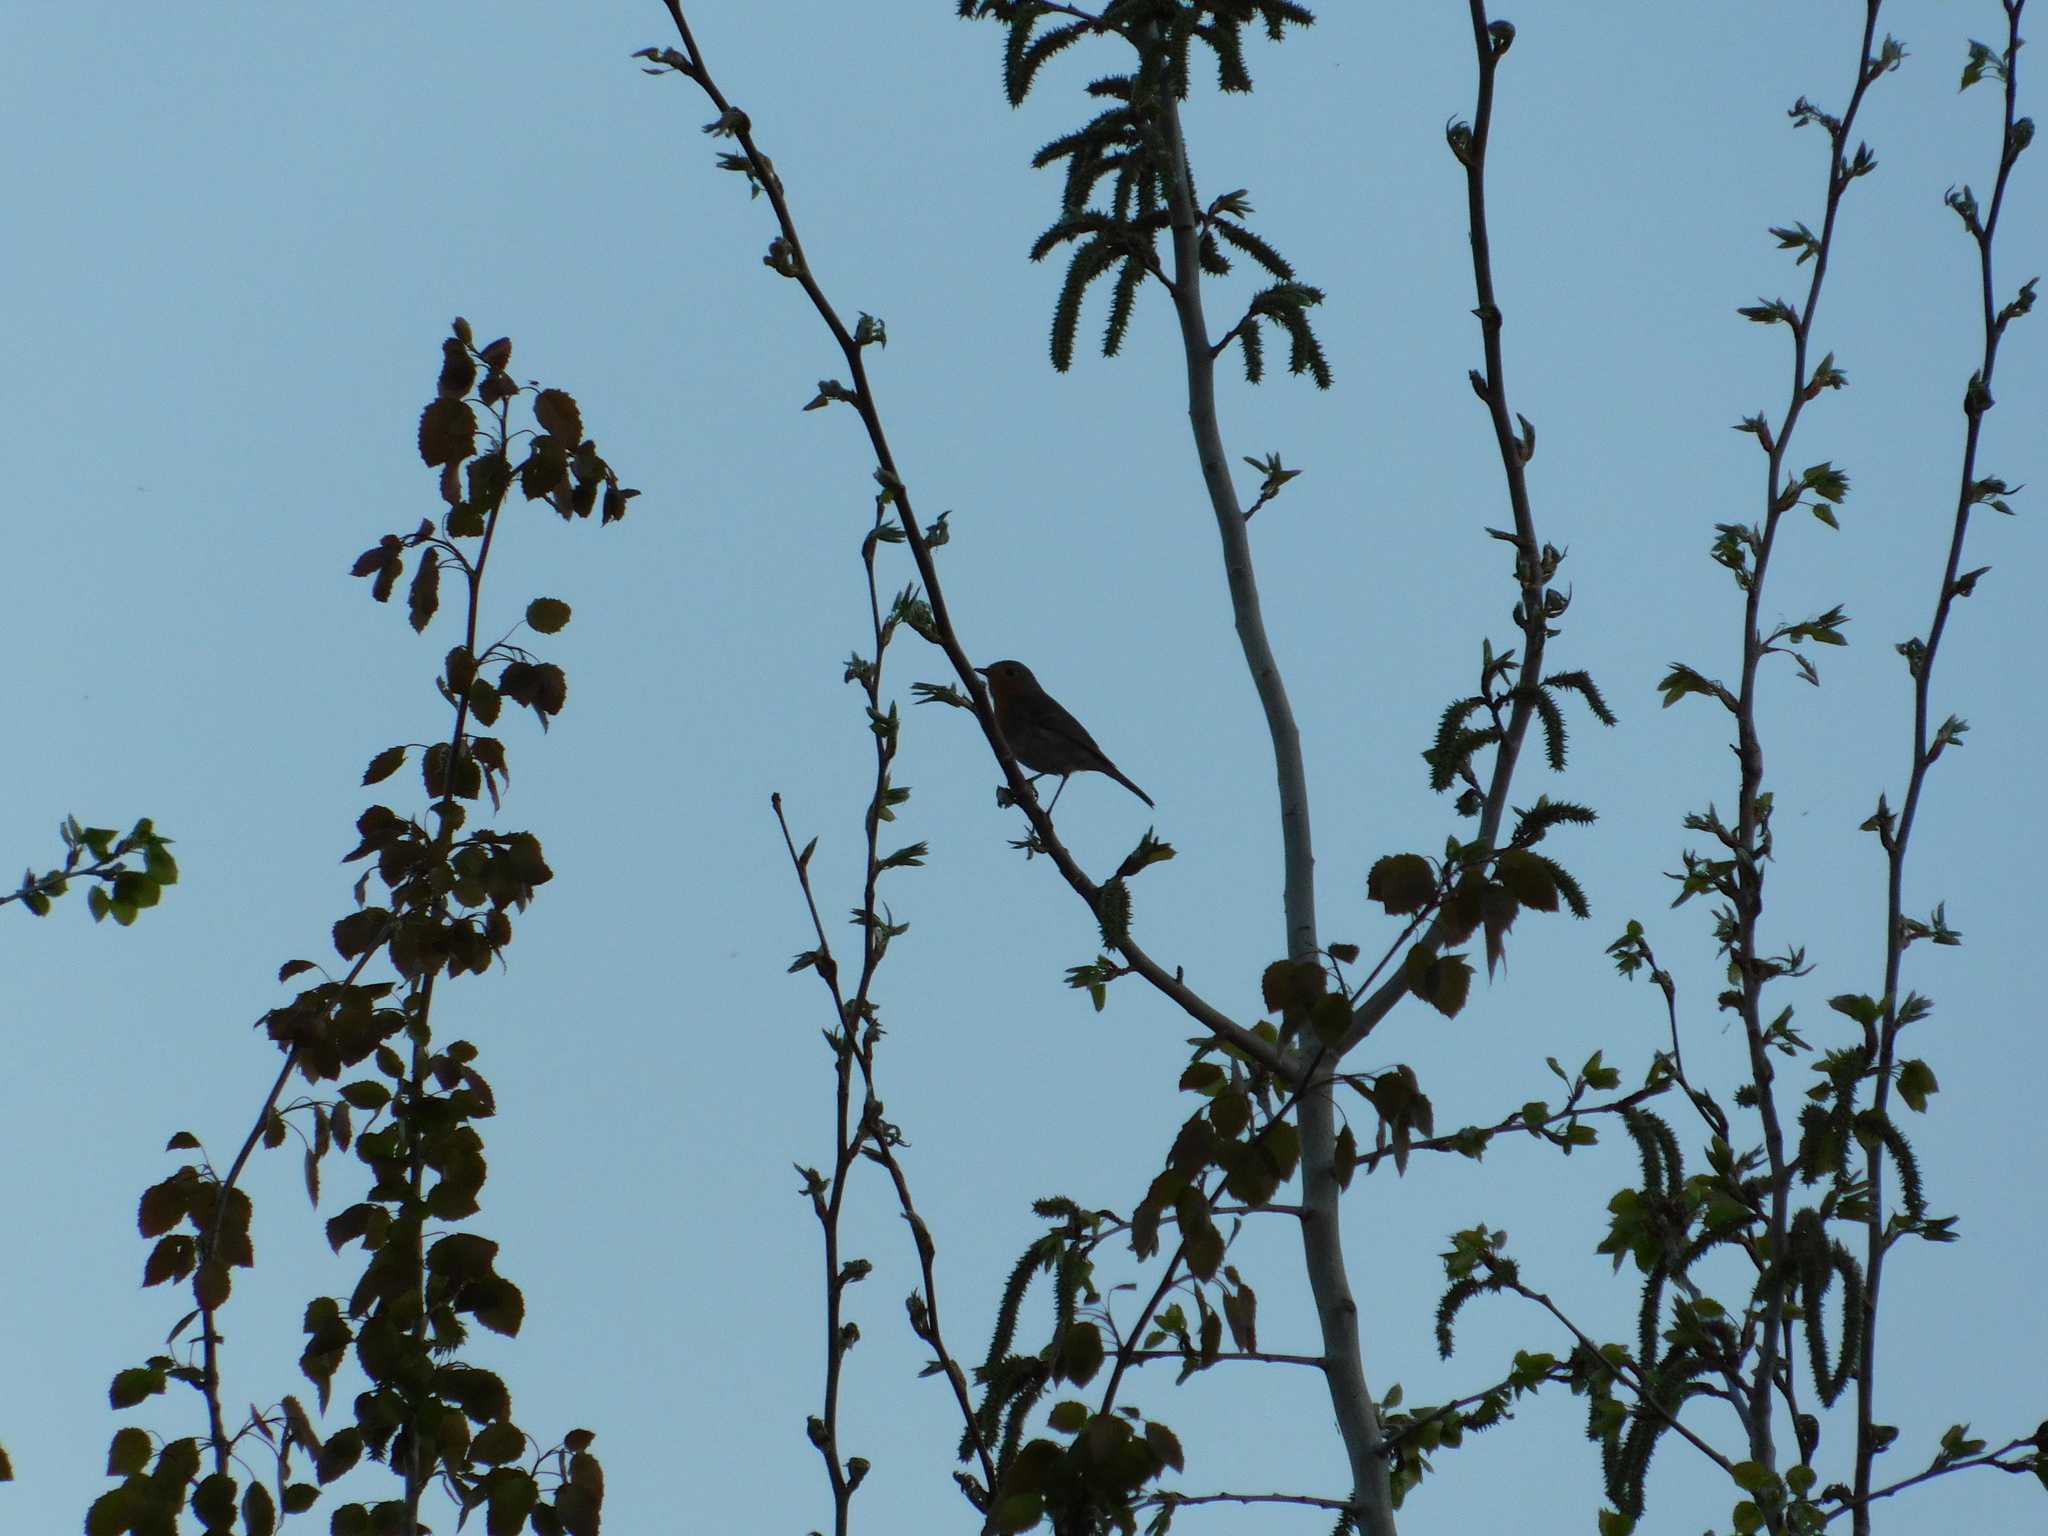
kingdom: Animalia
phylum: Chordata
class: Aves
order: Passeriformes
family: Muscicapidae
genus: Erithacus
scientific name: Erithacus rubecula
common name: European robin
